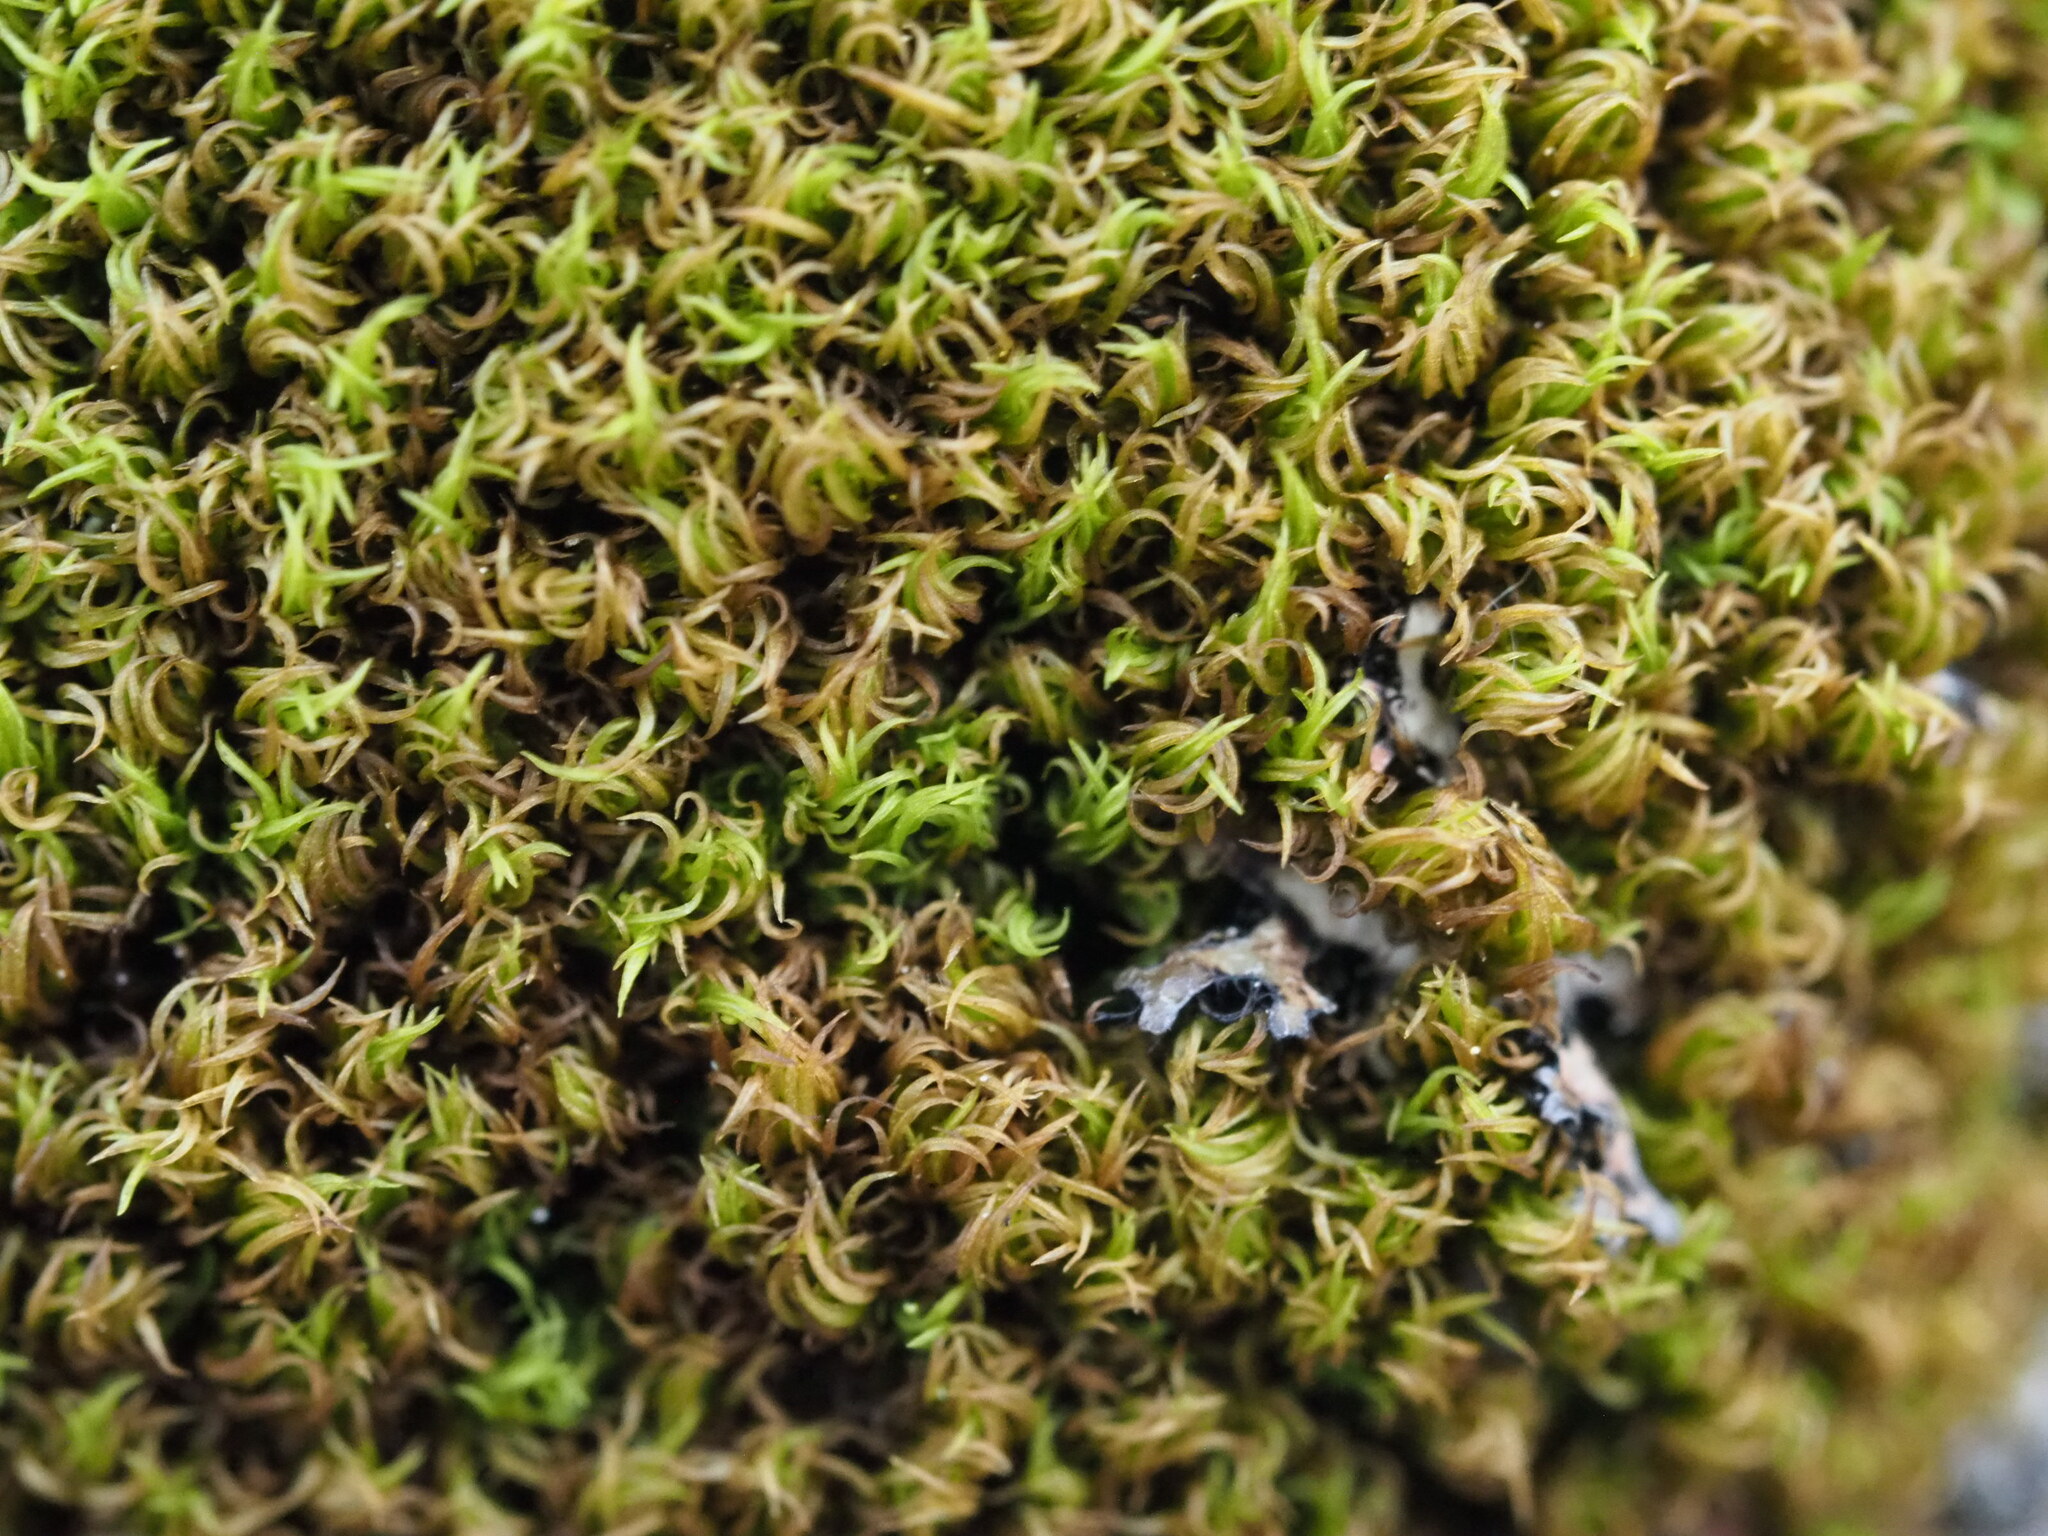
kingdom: Plantae
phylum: Bryophyta
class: Bryopsida
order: Dicranales
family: Rhabdoweisiaceae
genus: Dicranoweisia
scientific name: Dicranoweisia cirrata
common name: Common pincushion
